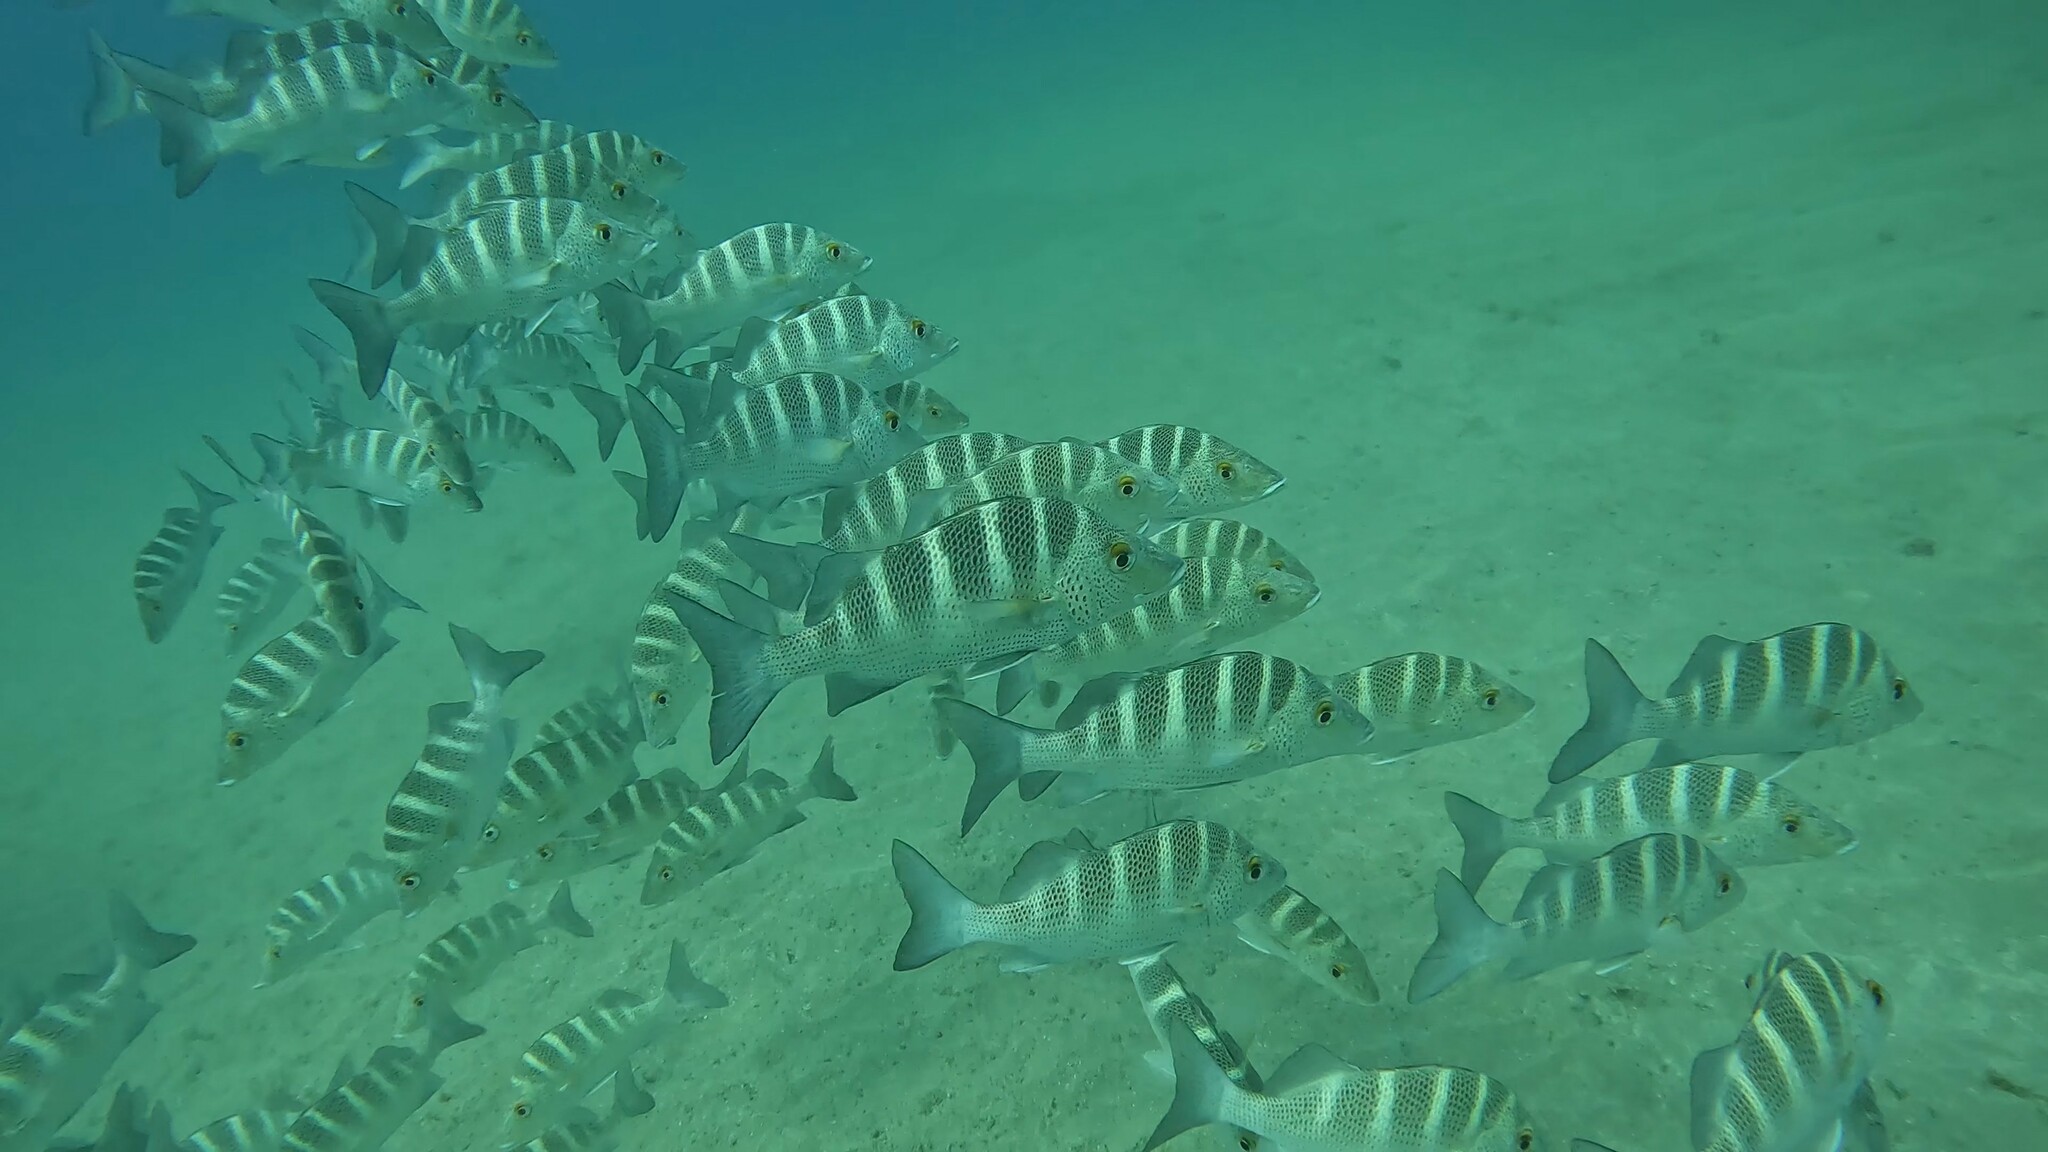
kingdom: Animalia
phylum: Chordata
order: Perciformes
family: Haemulidae
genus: Haemulon
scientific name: Haemulon sexfasciatum
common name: Graybar grunt
